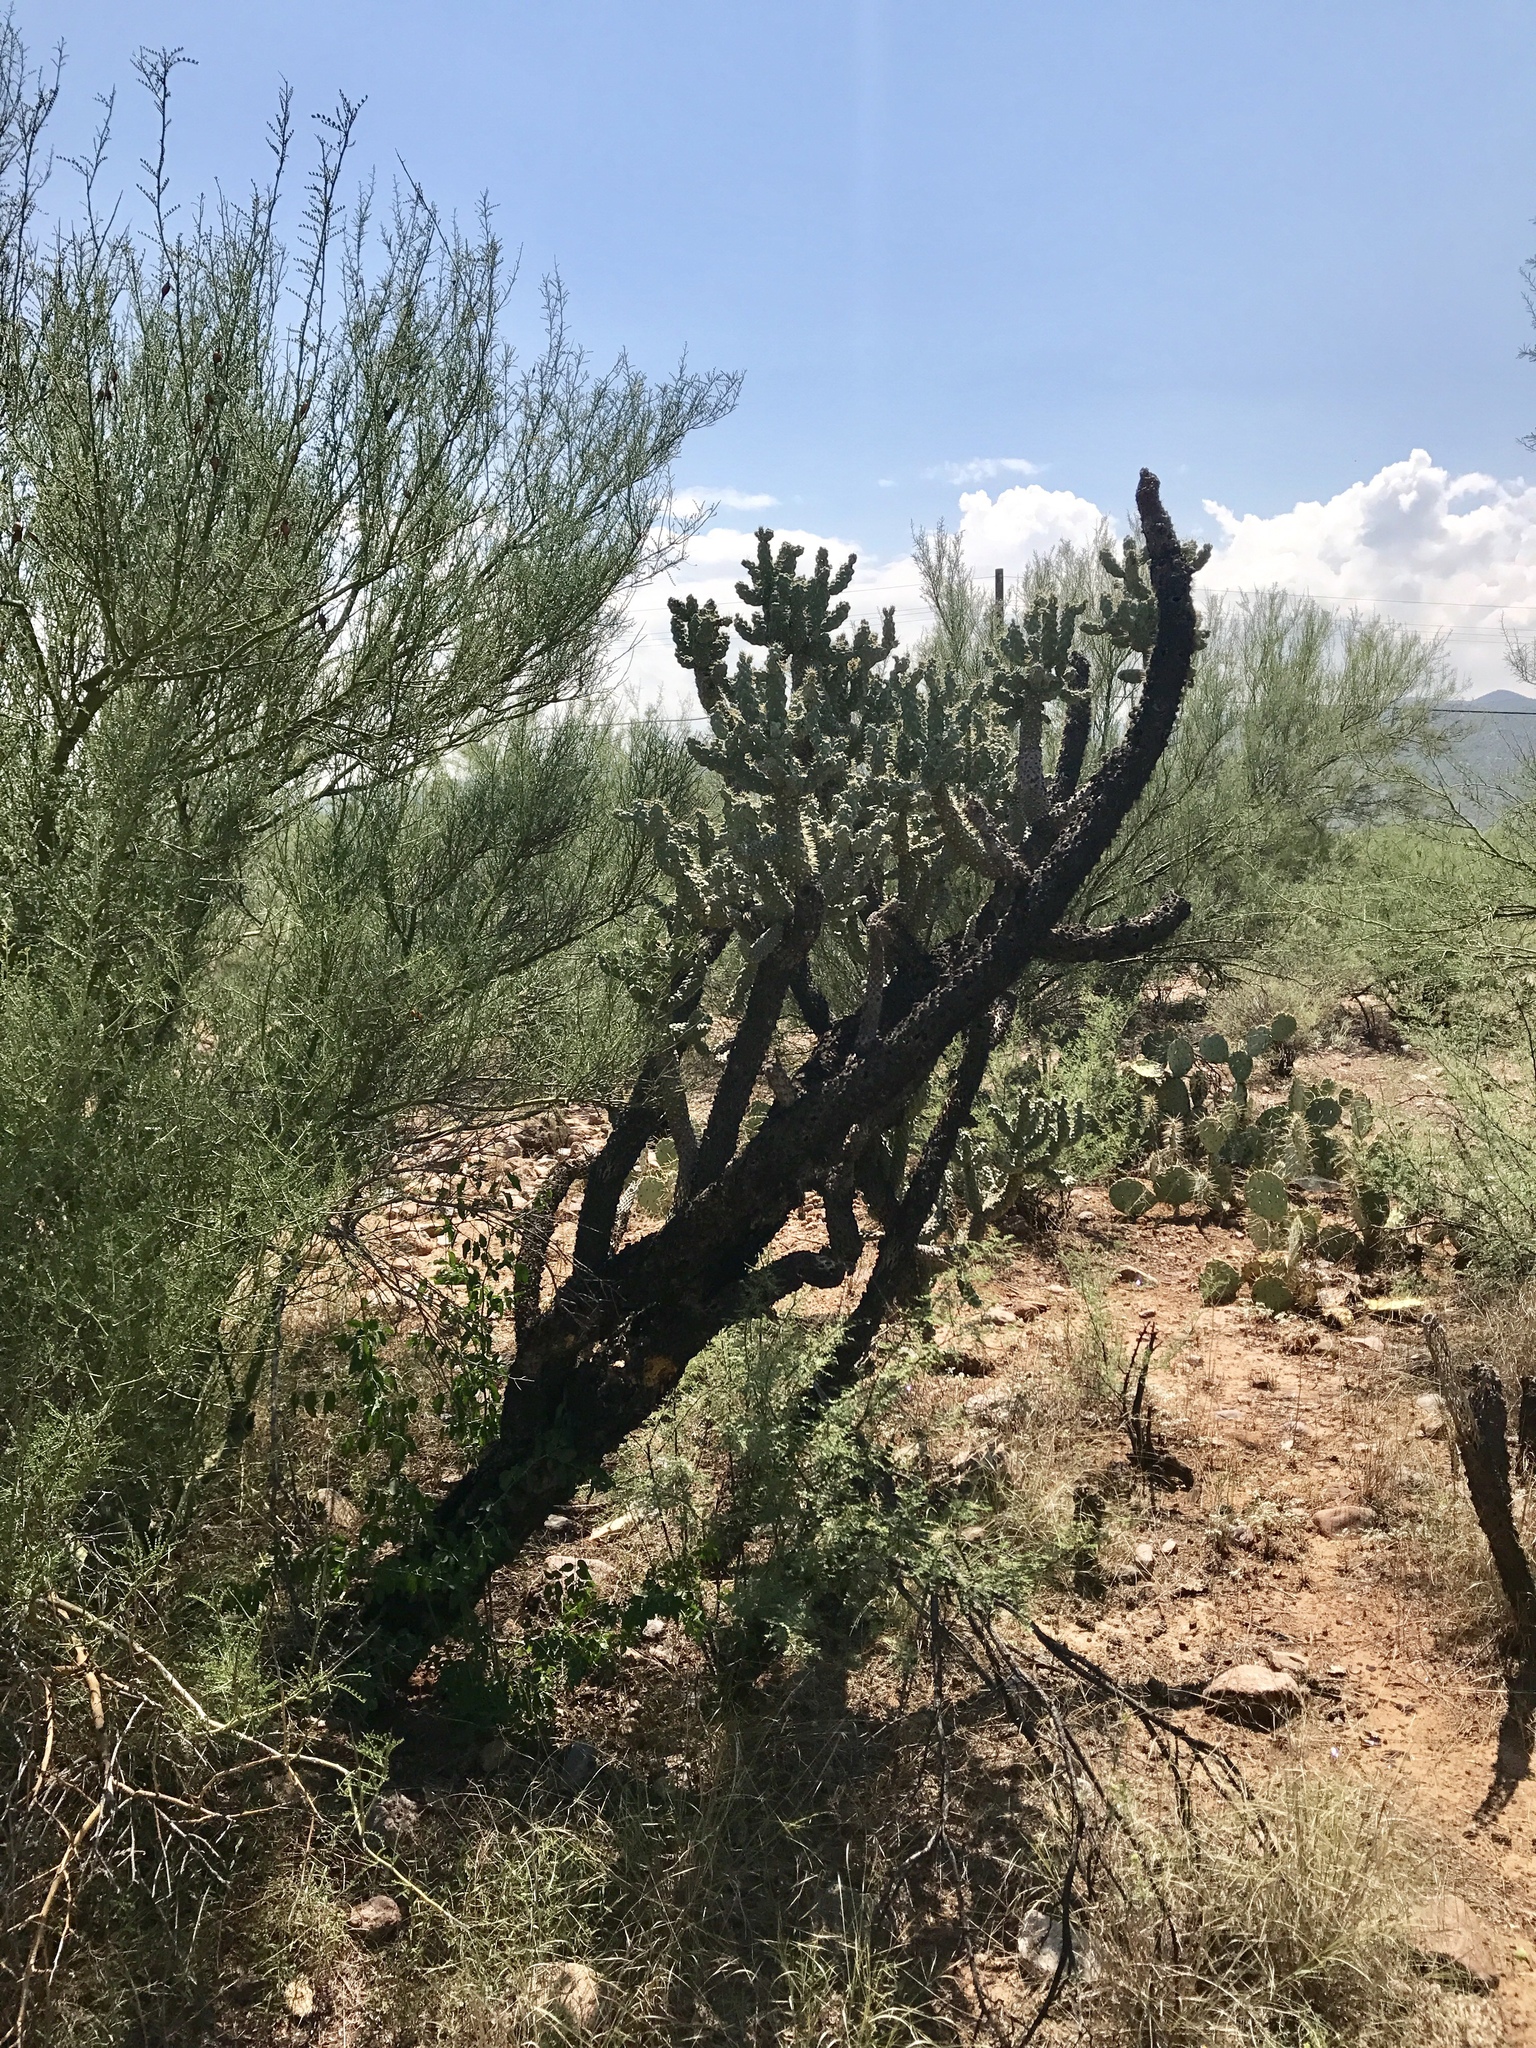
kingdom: Plantae
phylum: Tracheophyta
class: Magnoliopsida
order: Caryophyllales
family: Cactaceae
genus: Cylindropuntia
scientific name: Cylindropuntia fulgida
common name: Jumping cholla
